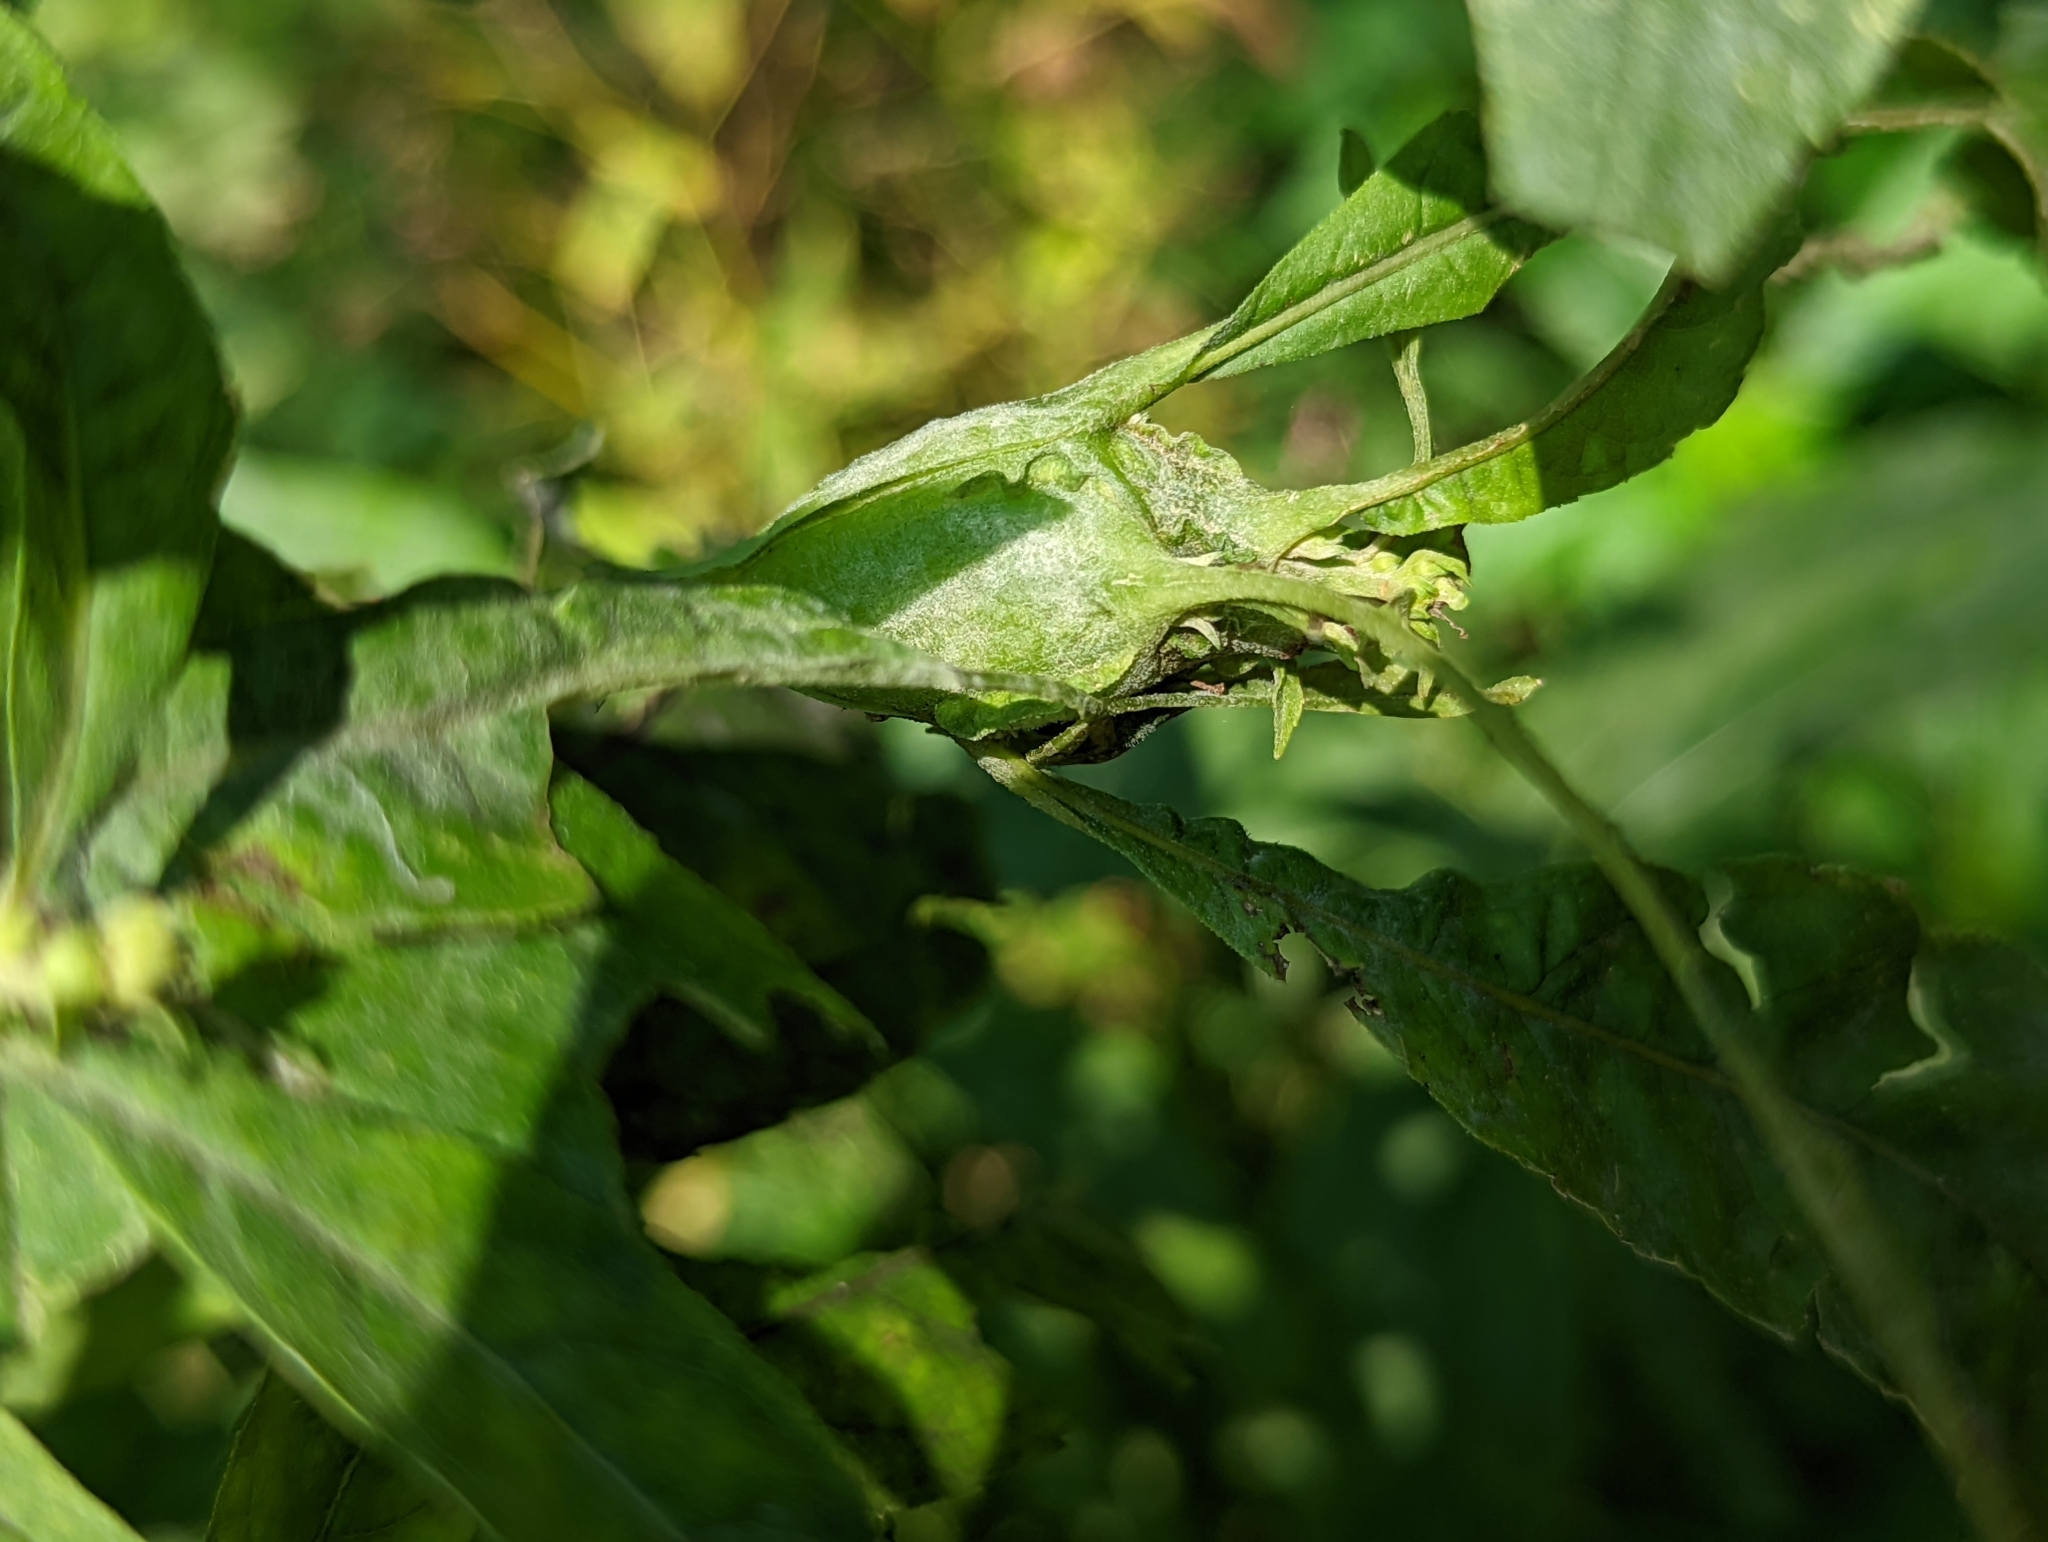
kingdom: Animalia
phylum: Arthropoda
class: Insecta
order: Diptera
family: Cecidomyiidae
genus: Neolasioptera
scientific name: Neolasioptera verbesinae
